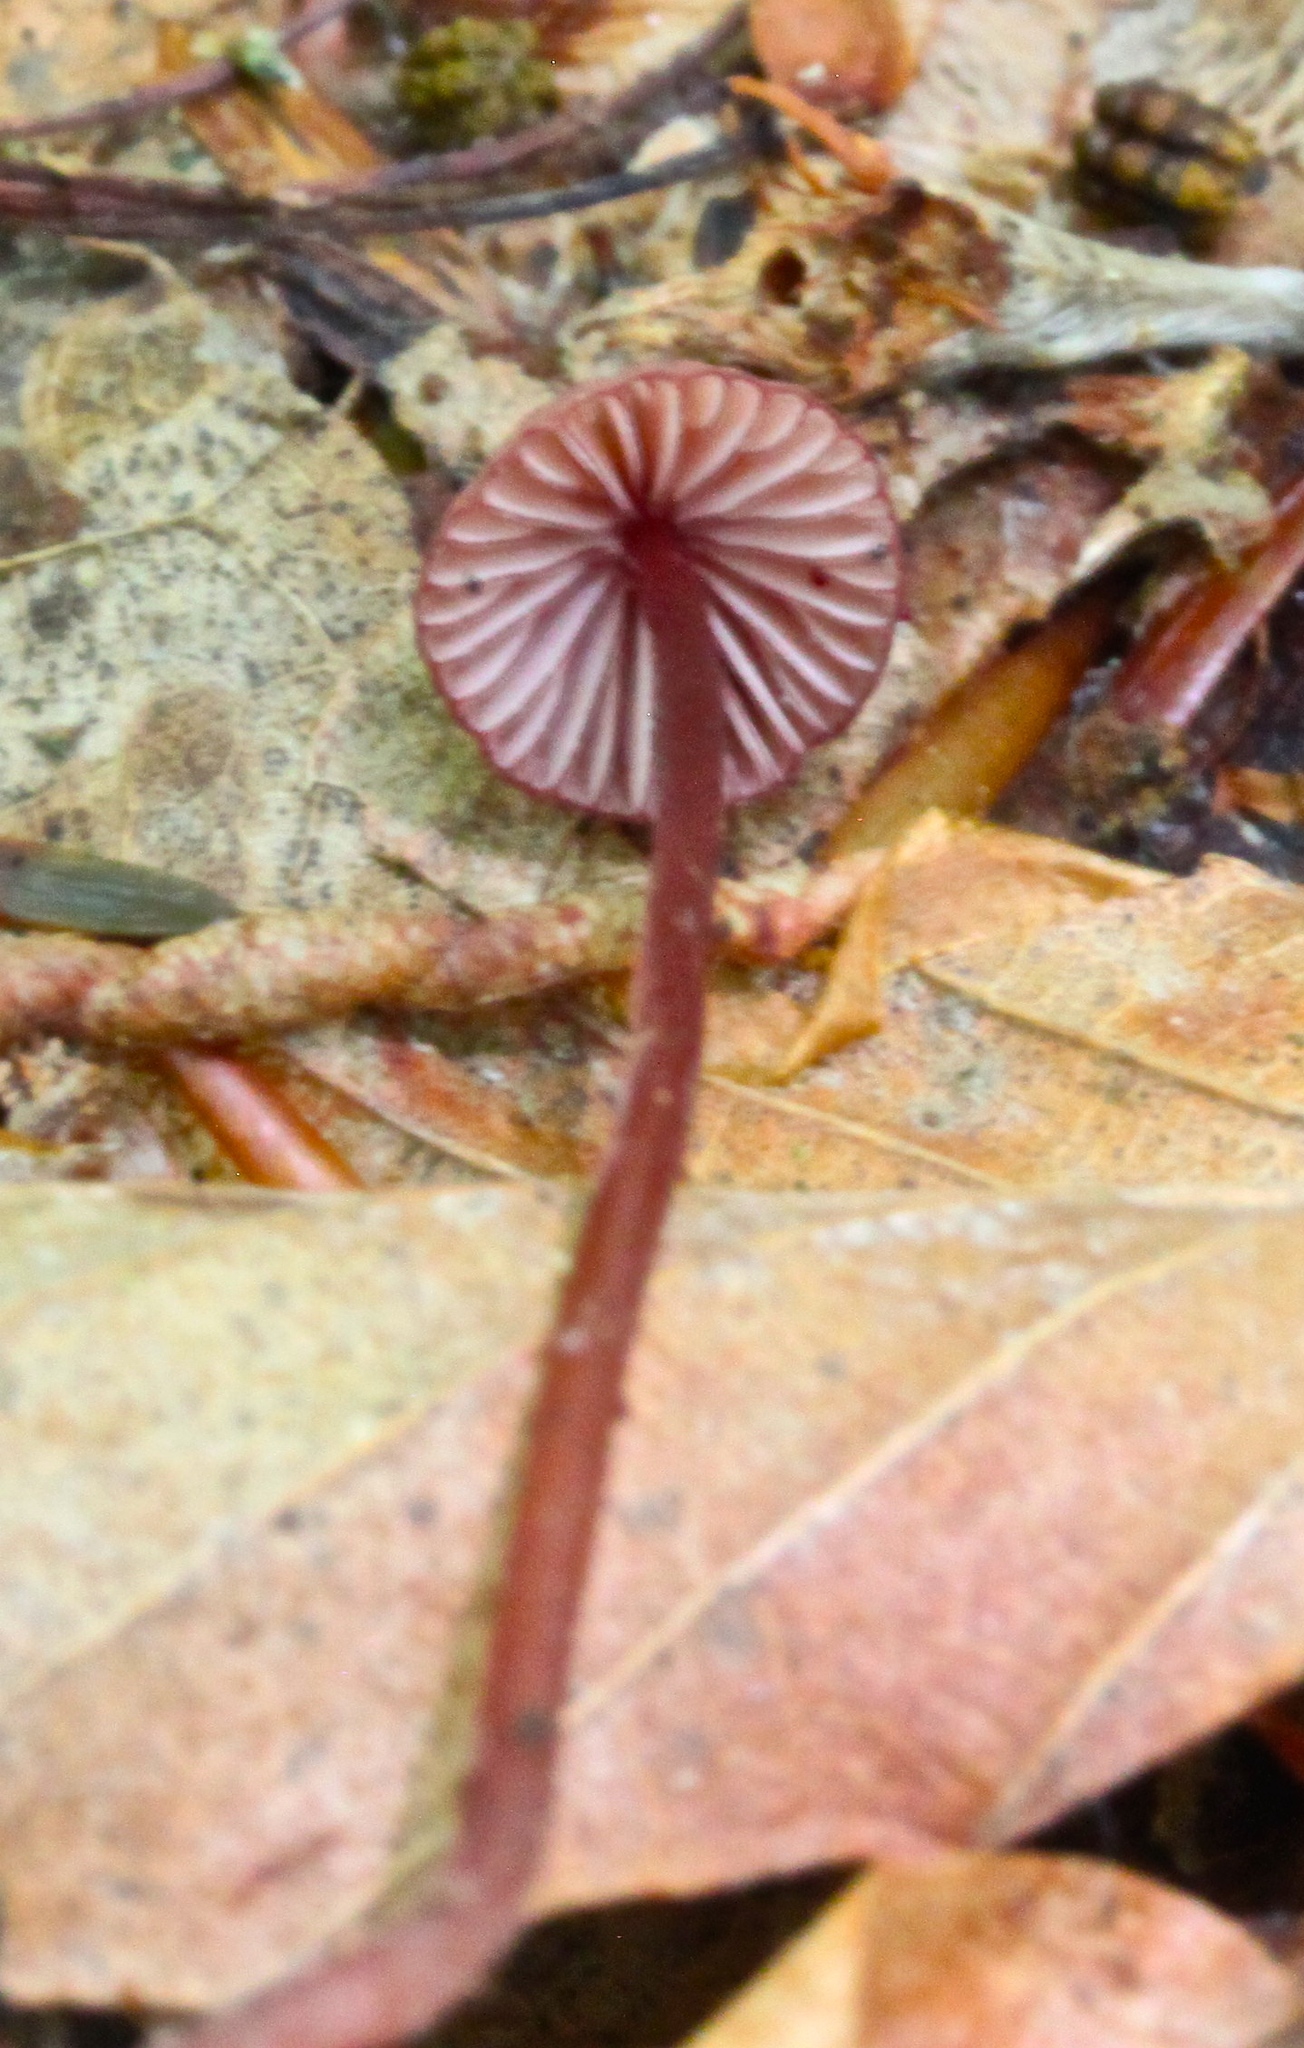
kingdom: Fungi
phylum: Basidiomycota
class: Agaricomycetes
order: Agaricales
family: Mycenaceae
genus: Mycena
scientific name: Mycena sanguinolenta
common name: Bleeding bonnet
